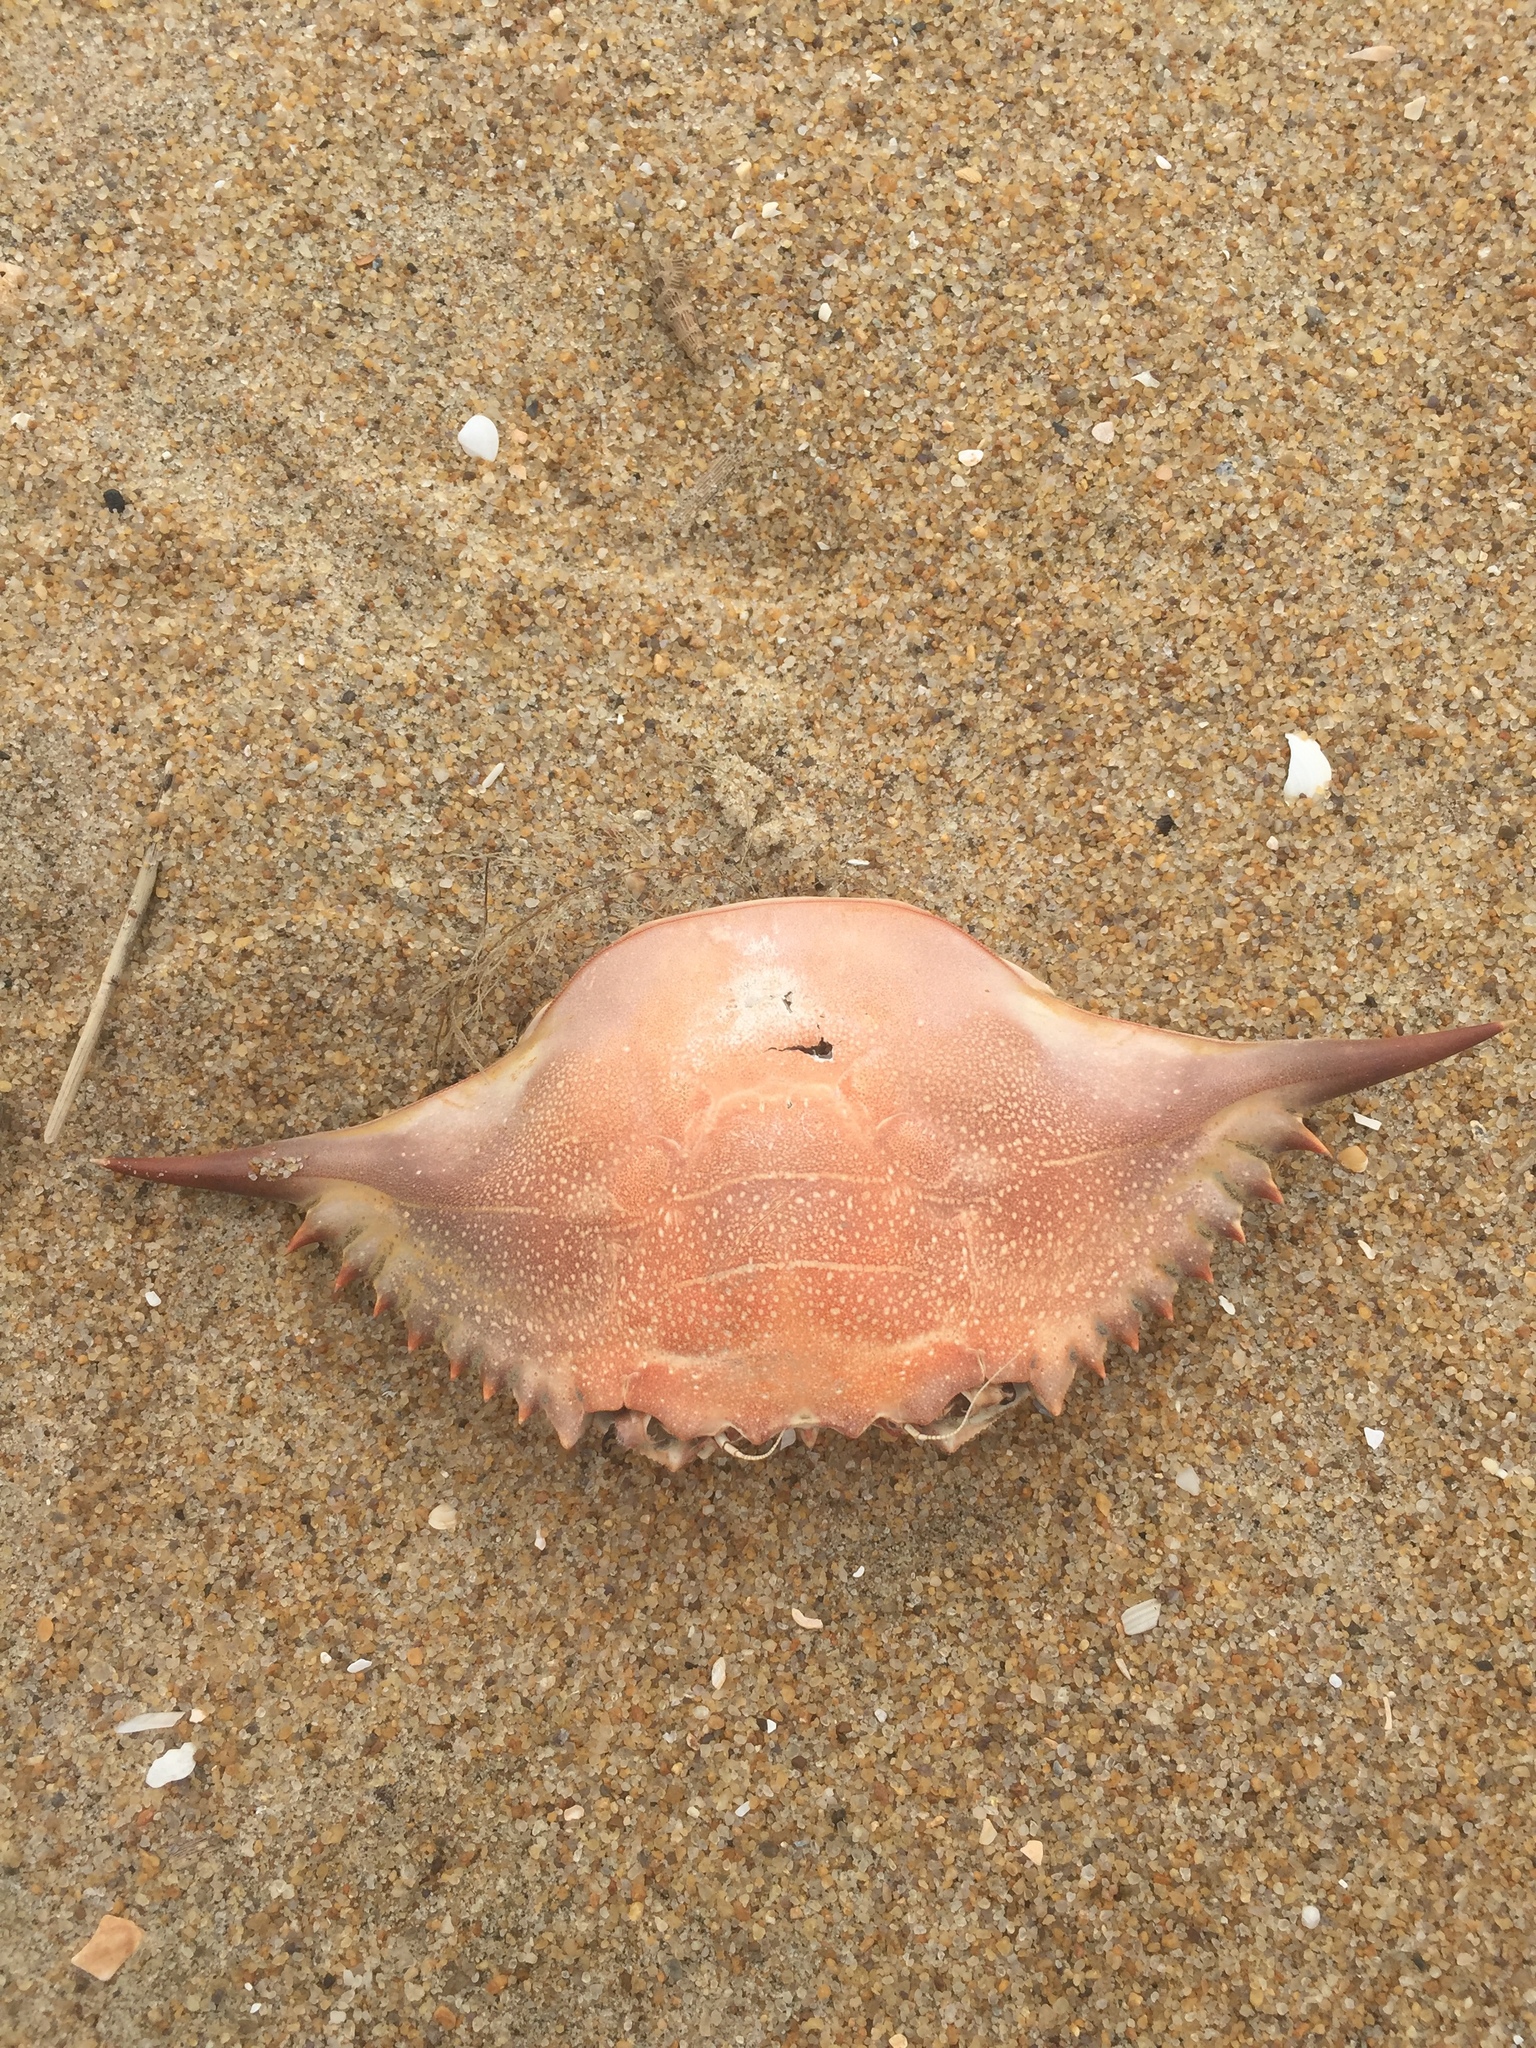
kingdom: Animalia
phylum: Arthropoda
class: Malacostraca
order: Decapoda
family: Portunidae
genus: Callinectes
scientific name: Callinectes sapidus
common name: Blue crab
